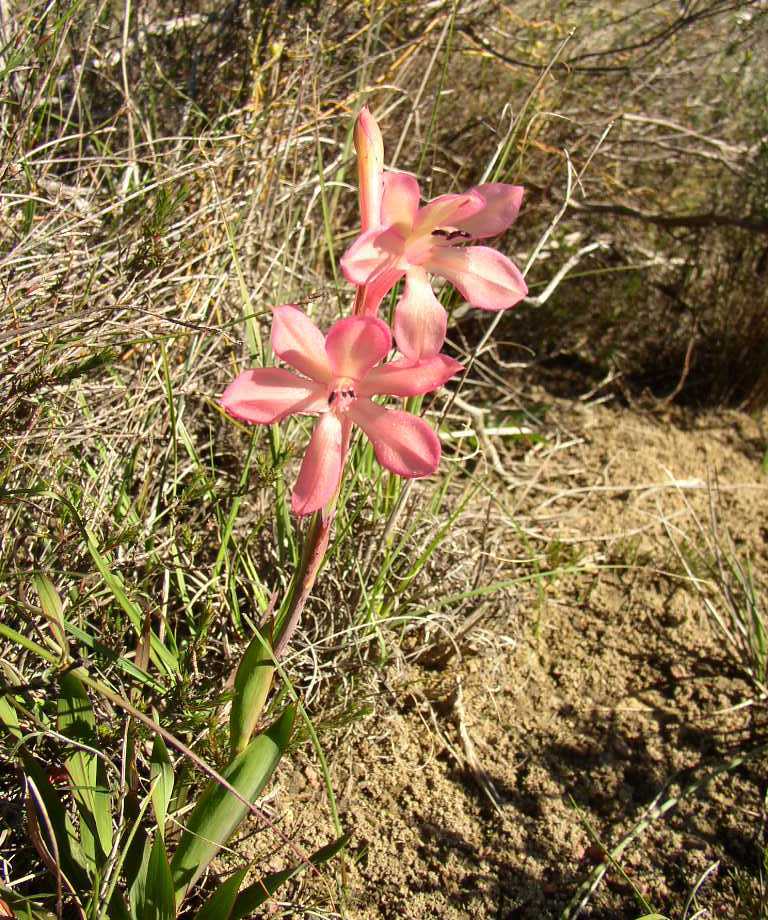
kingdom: Plantae
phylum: Tracheophyta
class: Liliopsida
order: Asparagales
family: Iridaceae
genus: Watsonia
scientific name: Watsonia spectabilis
